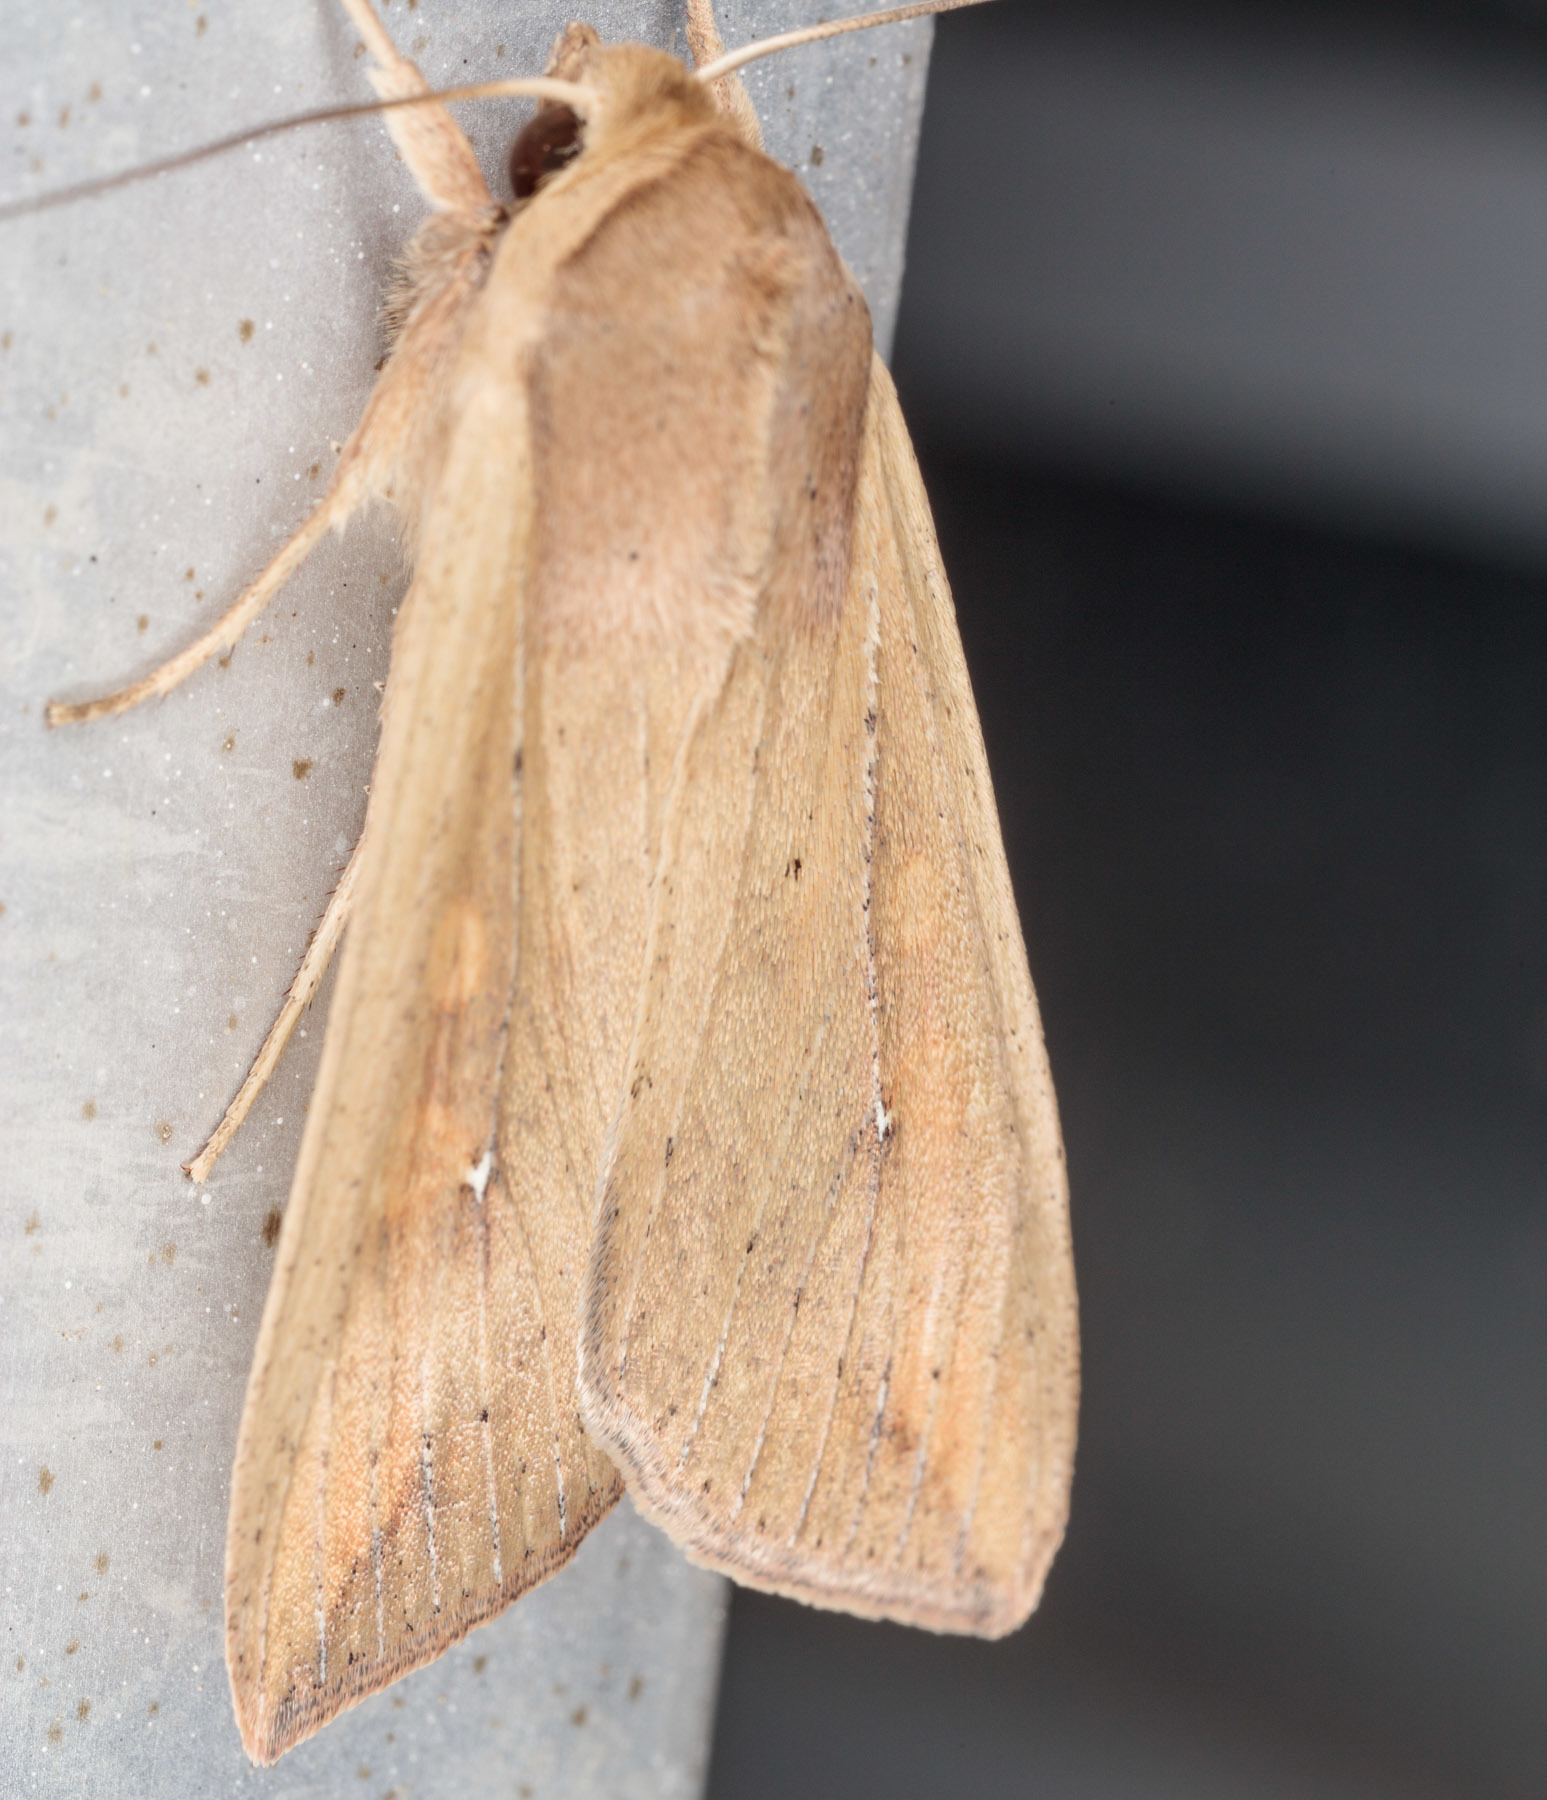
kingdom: Animalia
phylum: Arthropoda
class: Insecta
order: Lepidoptera
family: Noctuidae
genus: Mythimna
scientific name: Mythimna unipuncta
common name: White-speck
